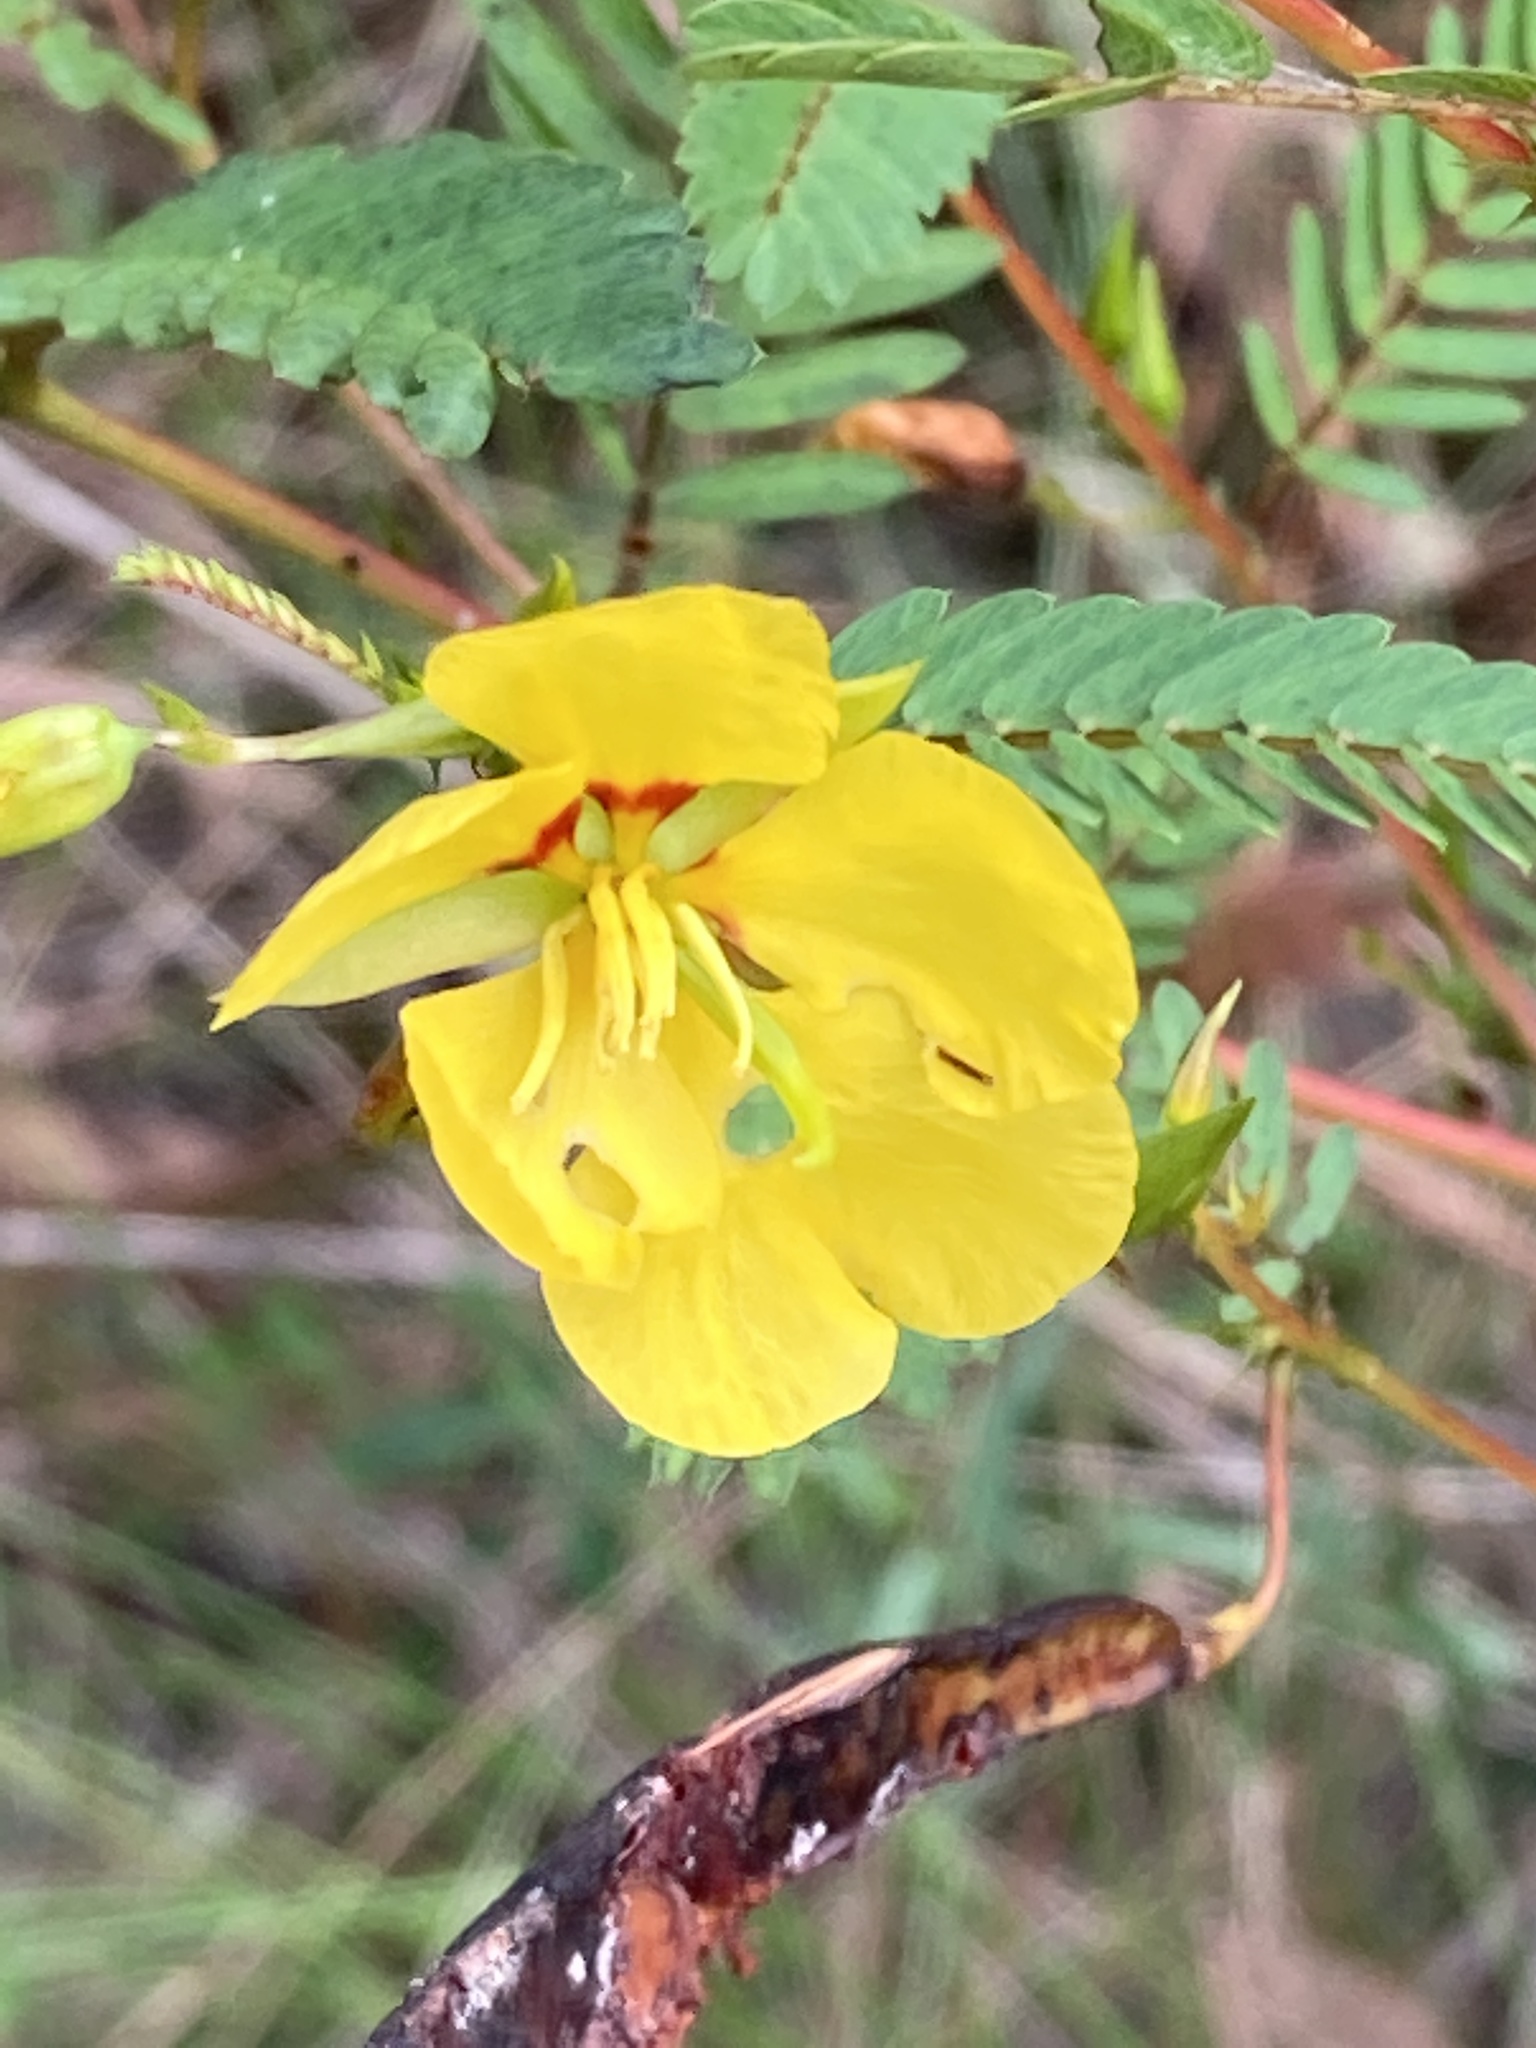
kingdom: Plantae
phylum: Tracheophyta
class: Magnoliopsida
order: Fabales
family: Fabaceae
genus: Chamaecrista
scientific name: Chamaecrista fasciculata
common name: Golden cassia
